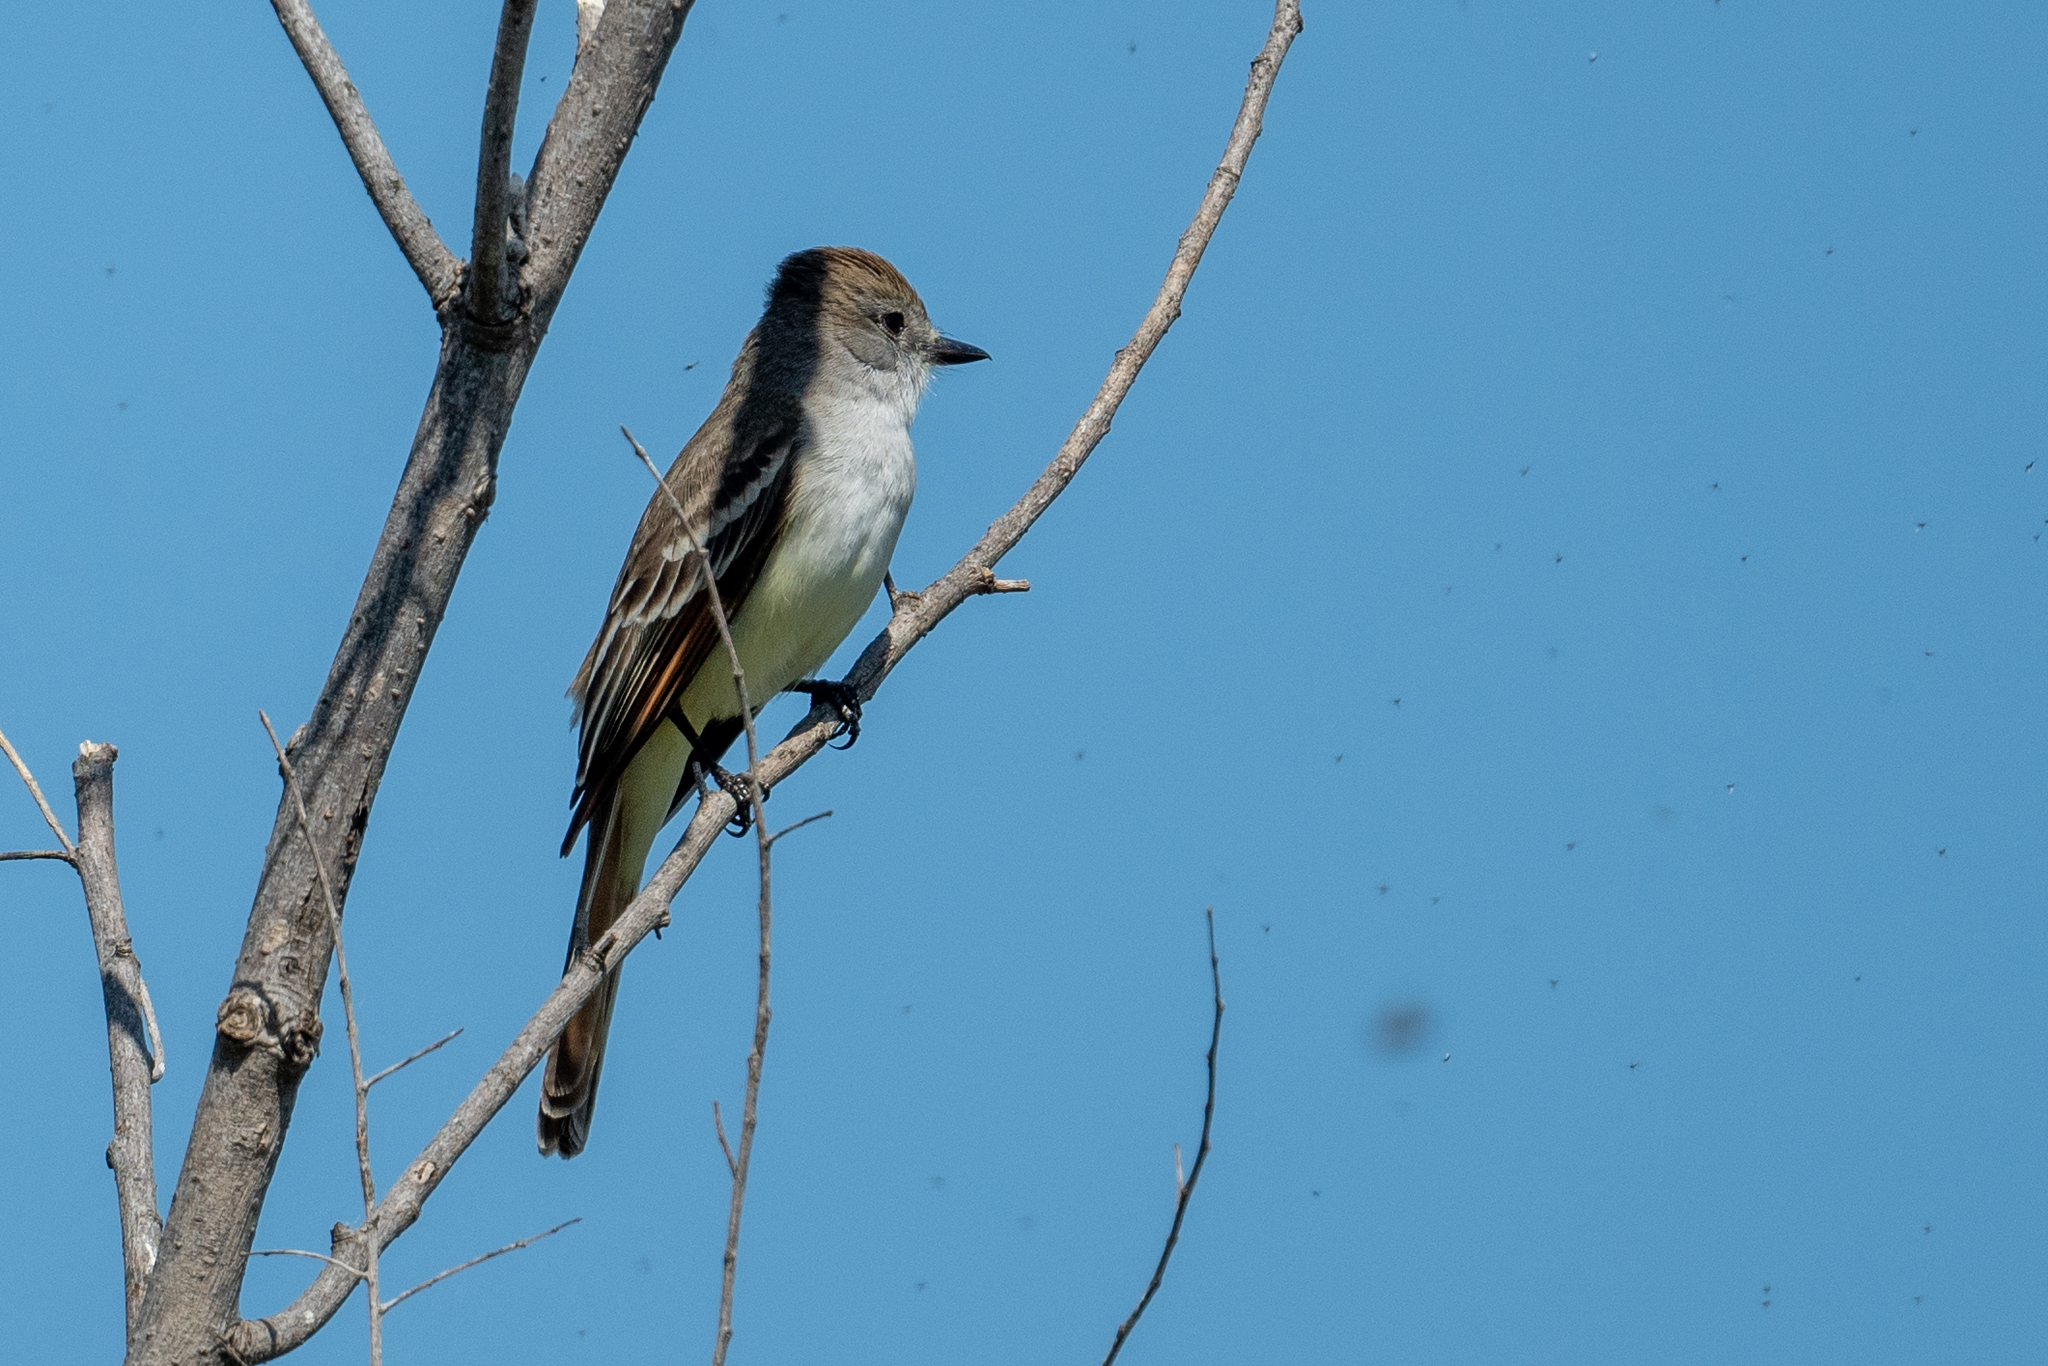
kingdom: Animalia
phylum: Chordata
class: Aves
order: Passeriformes
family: Tyrannidae
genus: Myiarchus
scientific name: Myiarchus cinerascens
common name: Ash-throated flycatcher
